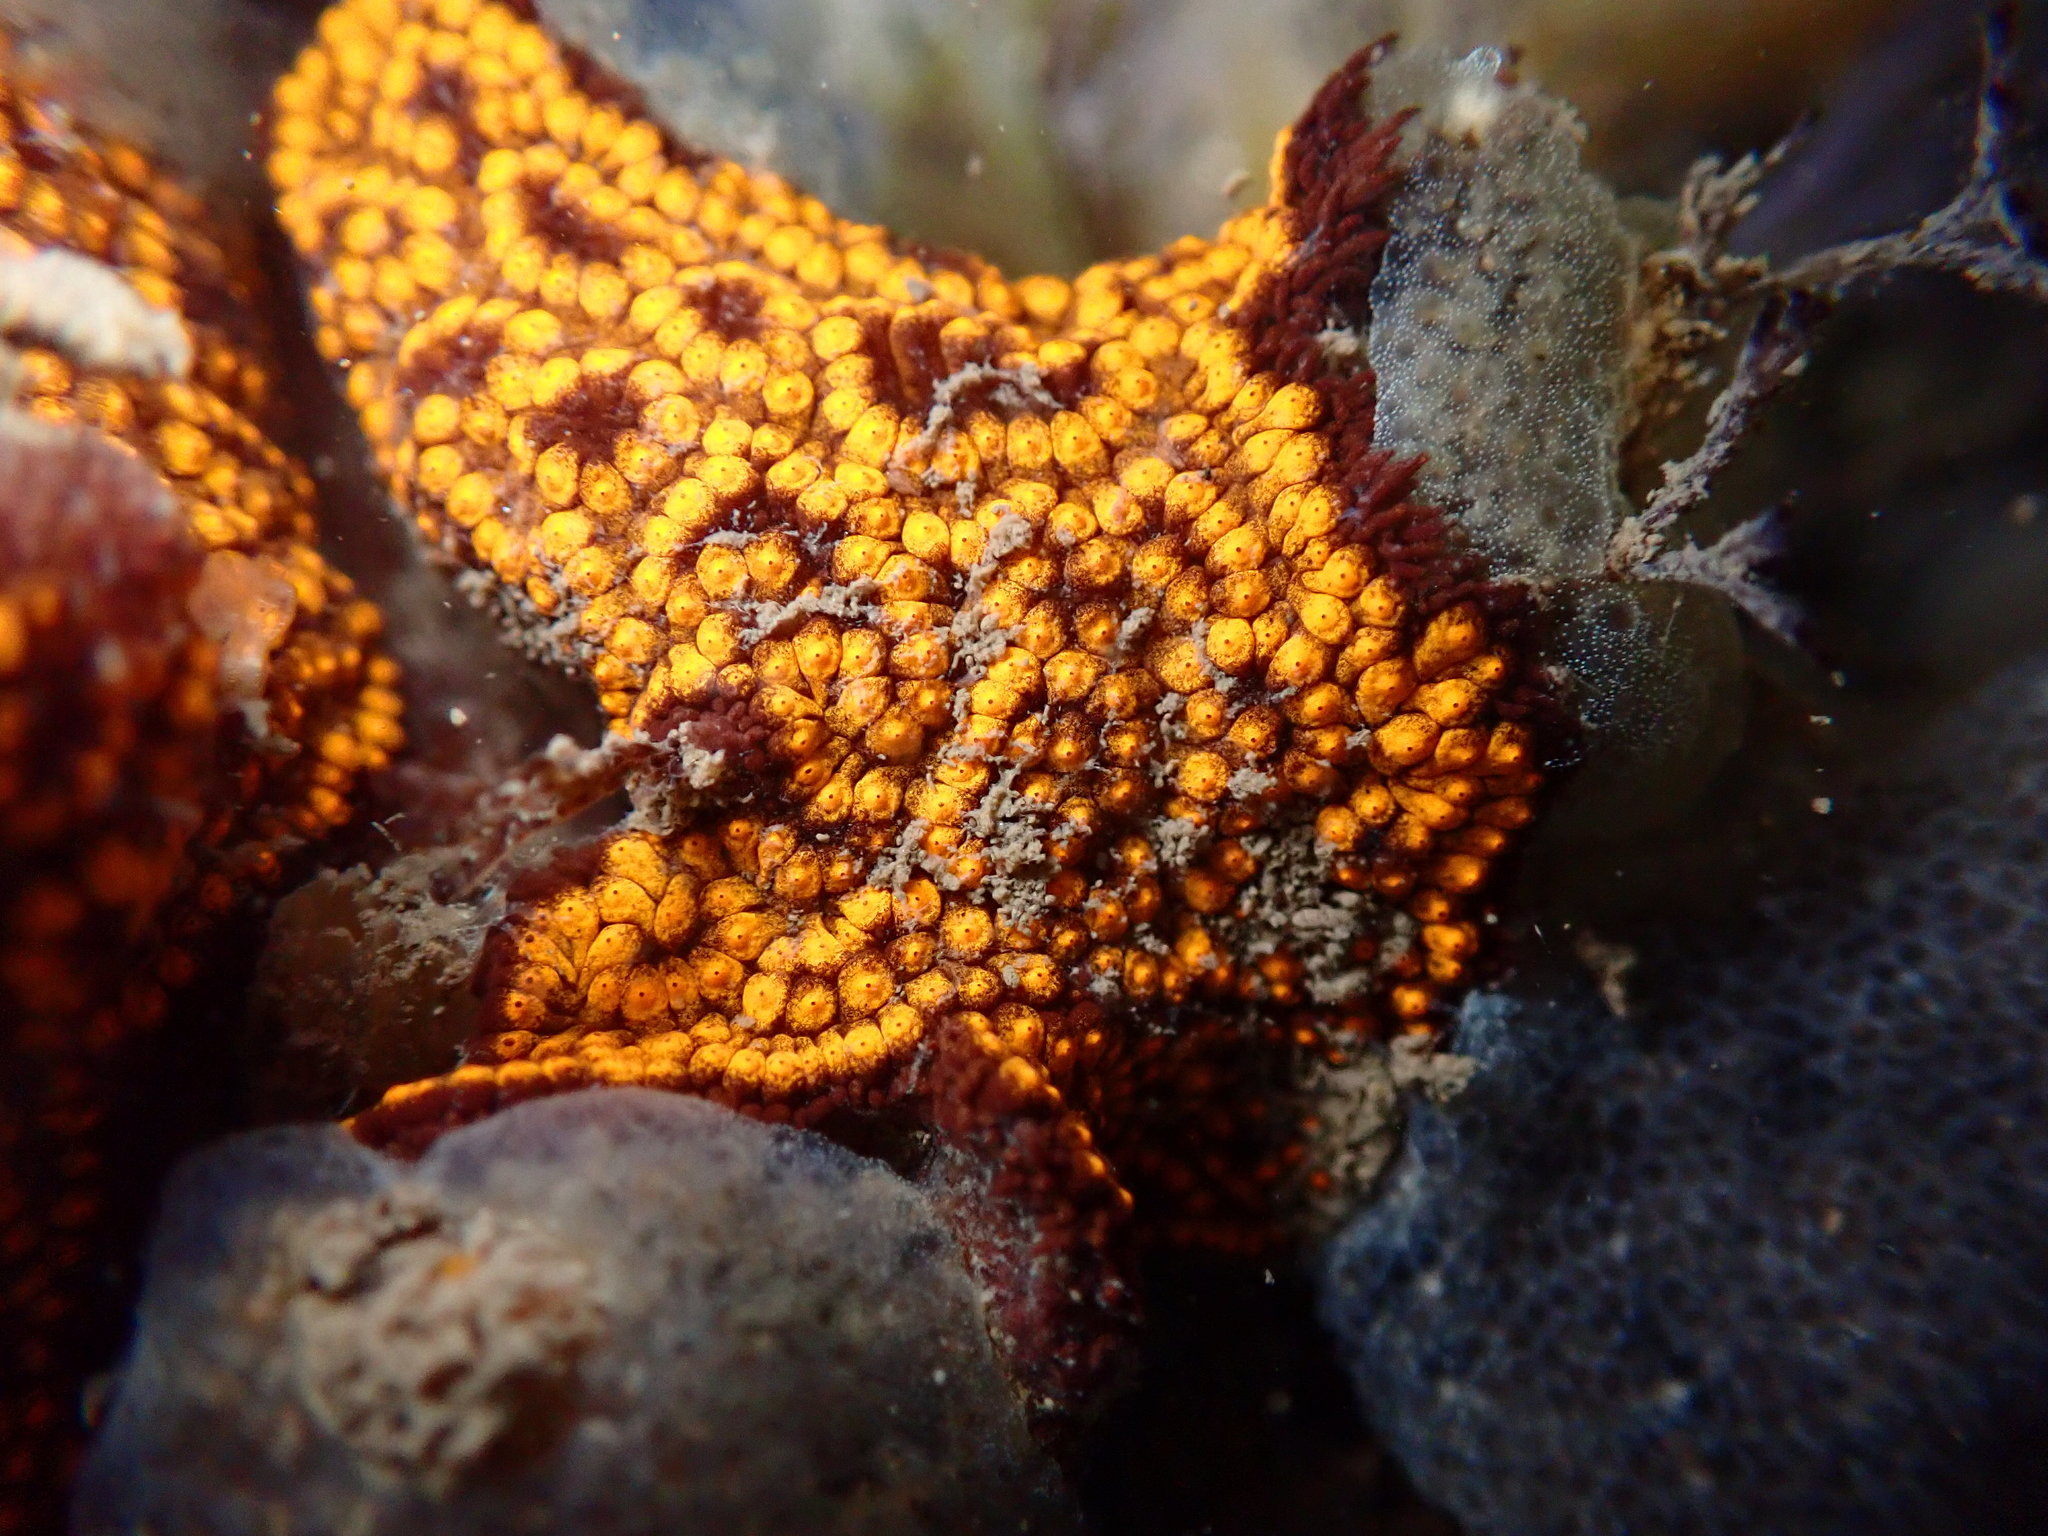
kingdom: Animalia
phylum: Chordata
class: Ascidiacea
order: Stolidobranchia
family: Styelidae
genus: Botrylloides
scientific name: Botrylloides diegensis
